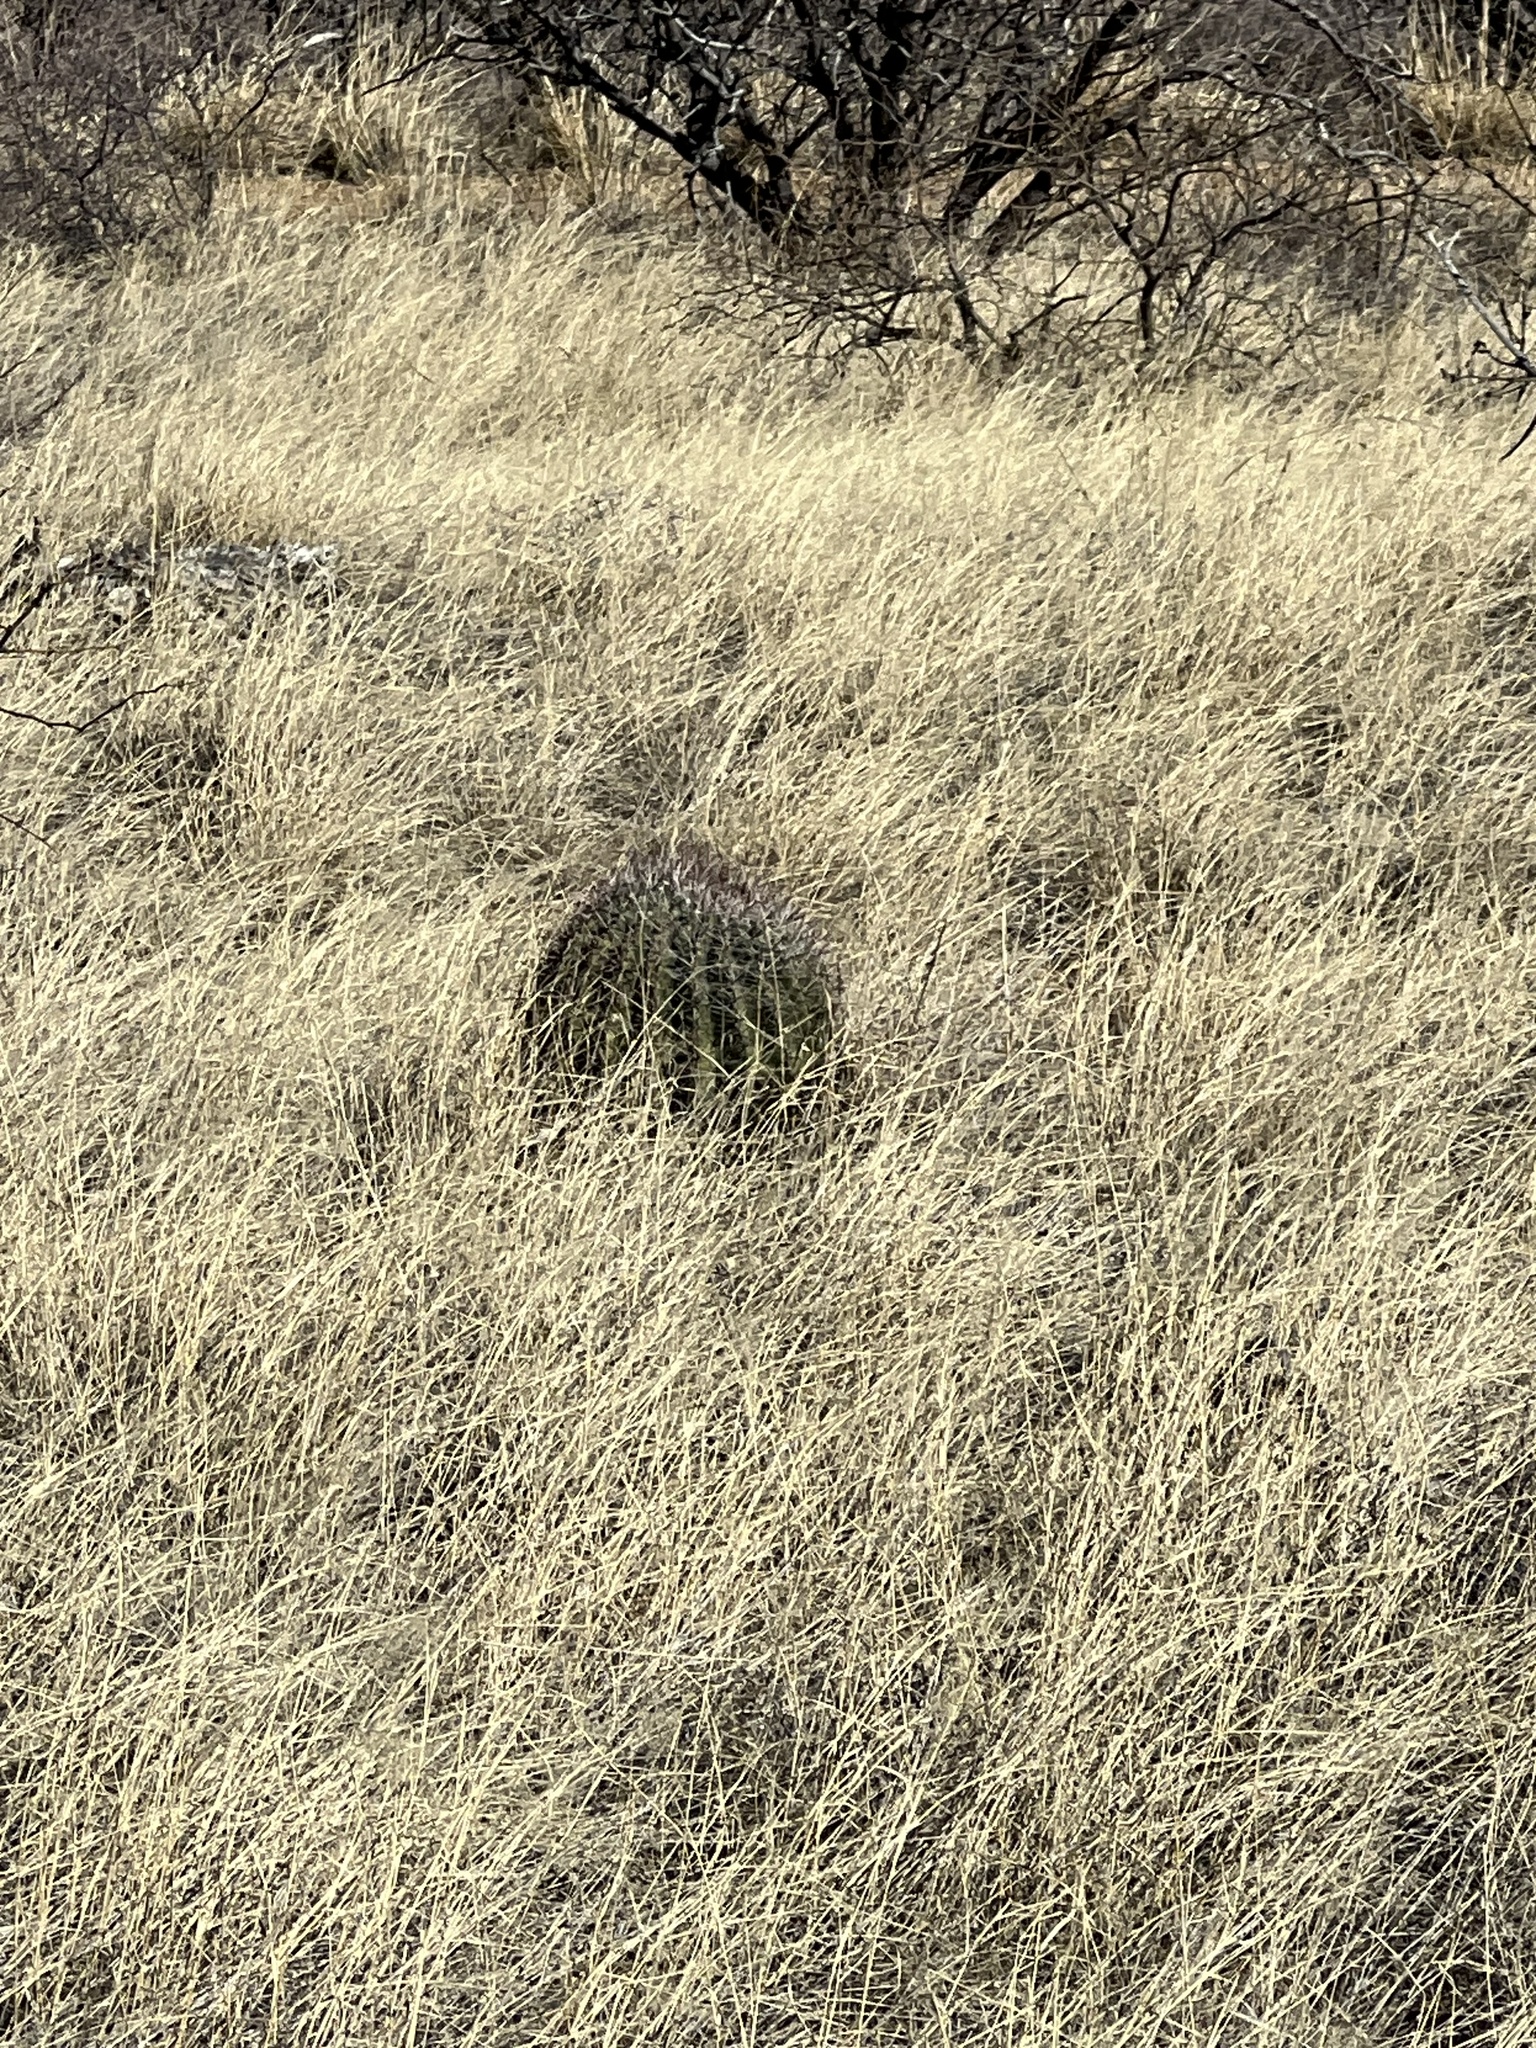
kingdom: Plantae
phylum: Tracheophyta
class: Magnoliopsida
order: Caryophyllales
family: Cactaceae
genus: Ferocactus
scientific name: Ferocactus wislizeni
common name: Candy barrel cactus
